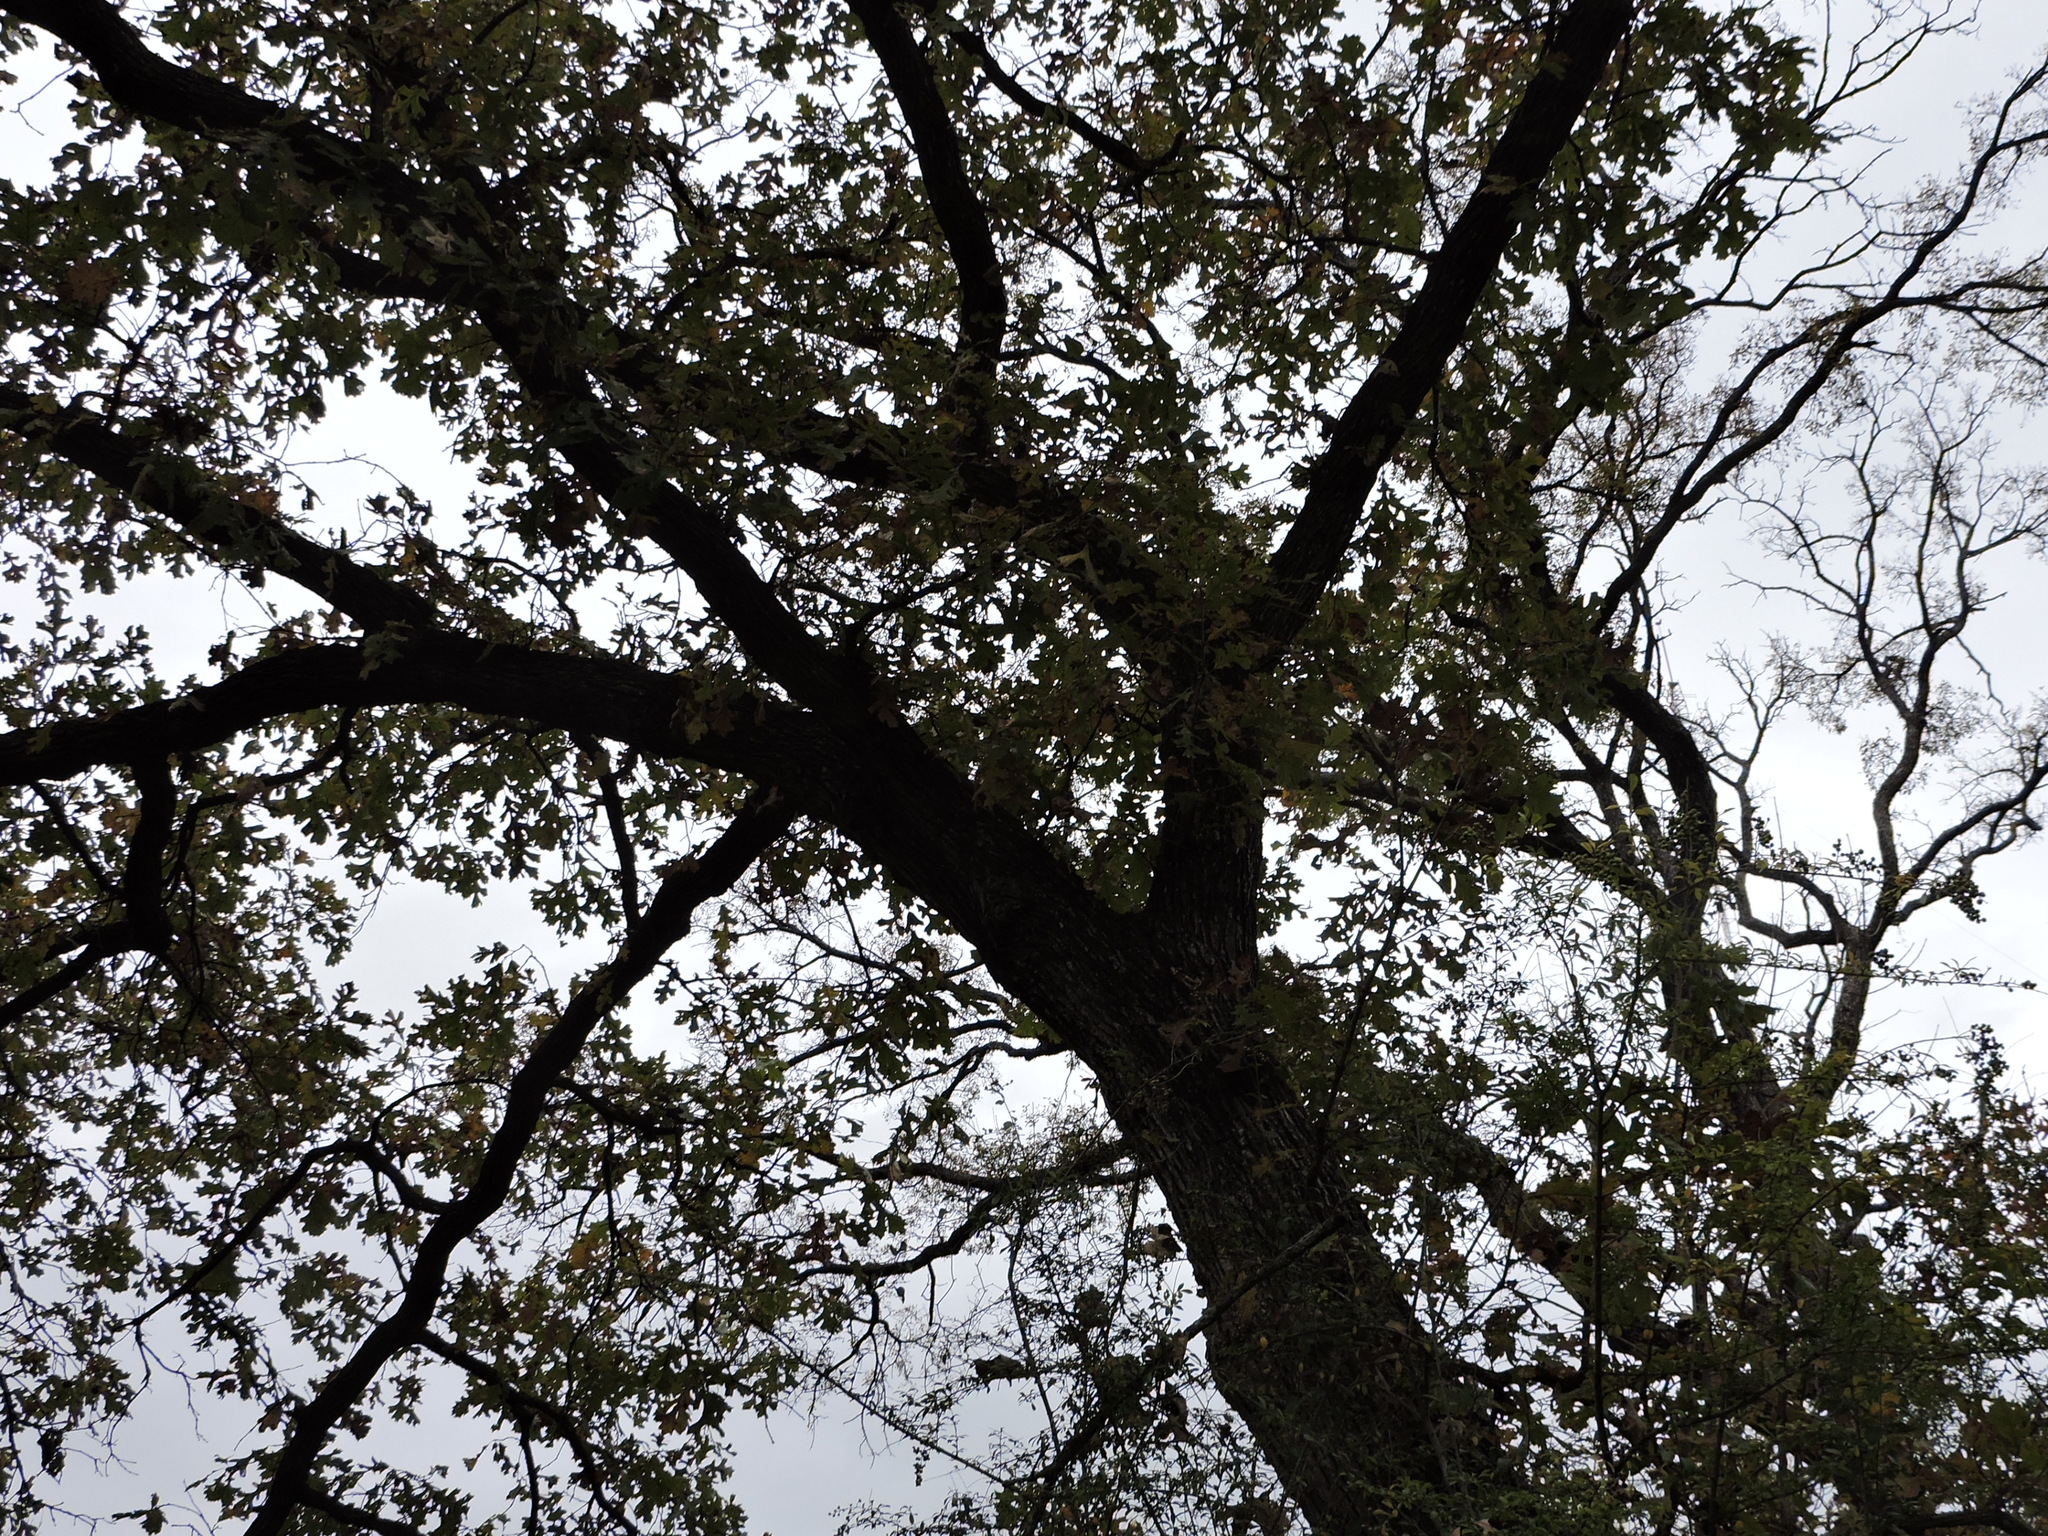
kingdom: Plantae
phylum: Tracheophyta
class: Magnoliopsida
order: Fagales
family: Fagaceae
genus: Quercus
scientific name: Quercus macrocarpa
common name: Bur oak
